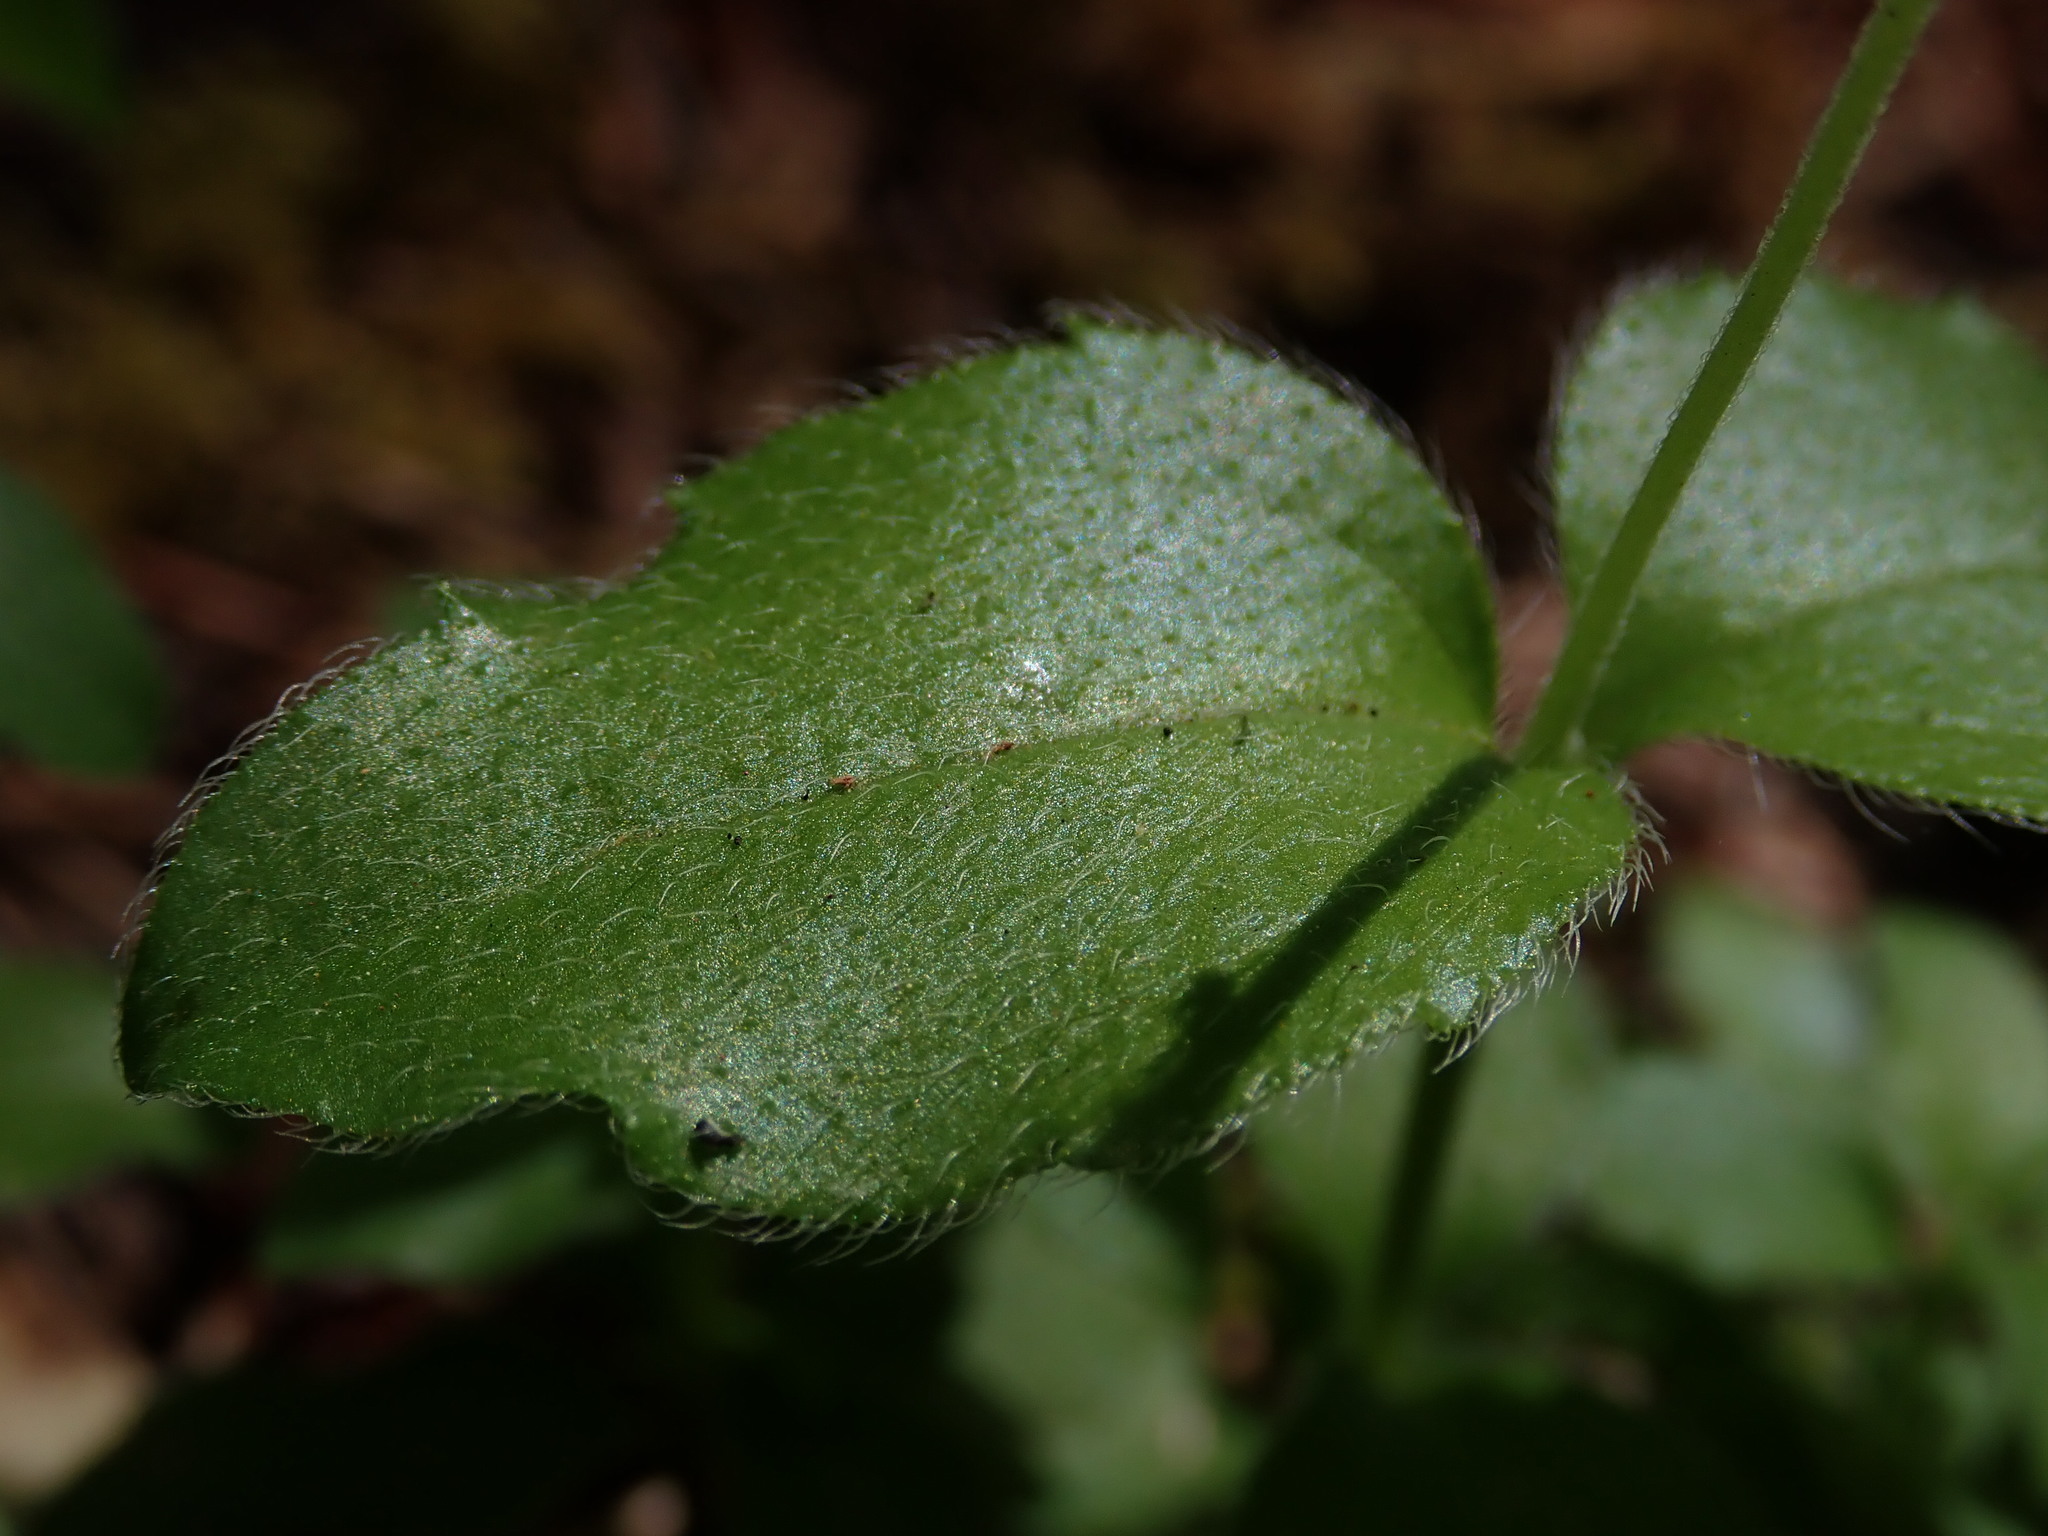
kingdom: Plantae
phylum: Tracheophyta
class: Magnoliopsida
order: Cornales
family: Hydrangeaceae
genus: Whipplea
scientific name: Whipplea modesta
